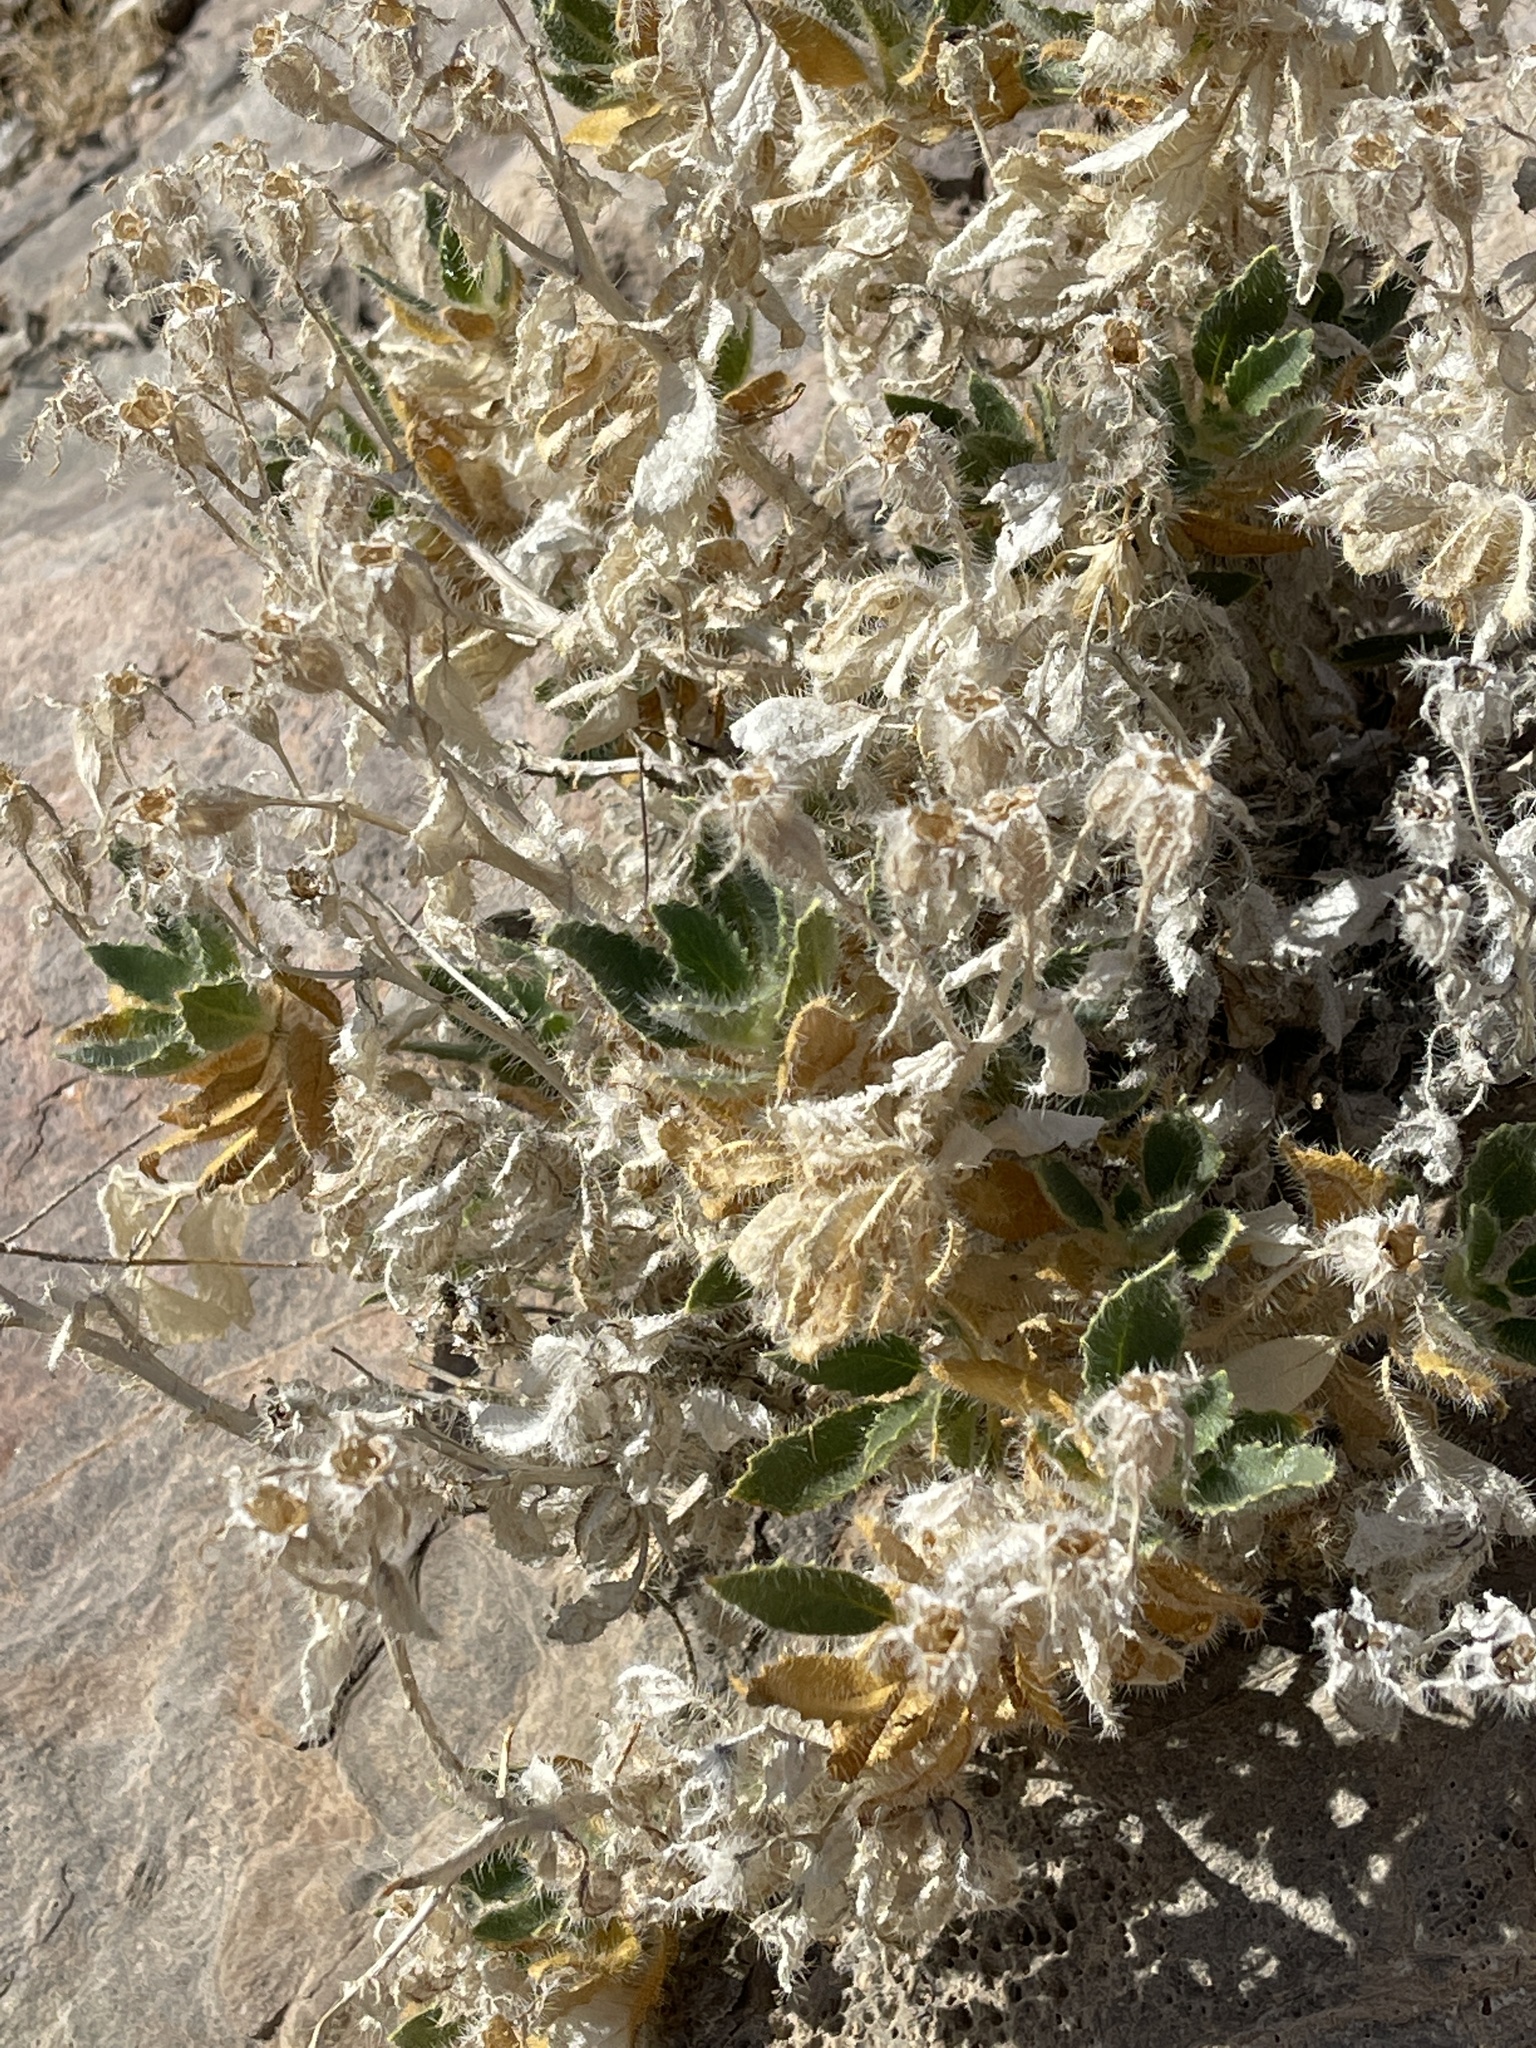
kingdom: Plantae
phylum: Tracheophyta
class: Magnoliopsida
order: Cornales
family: Loasaceae
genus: Eucnide
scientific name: Eucnide urens
